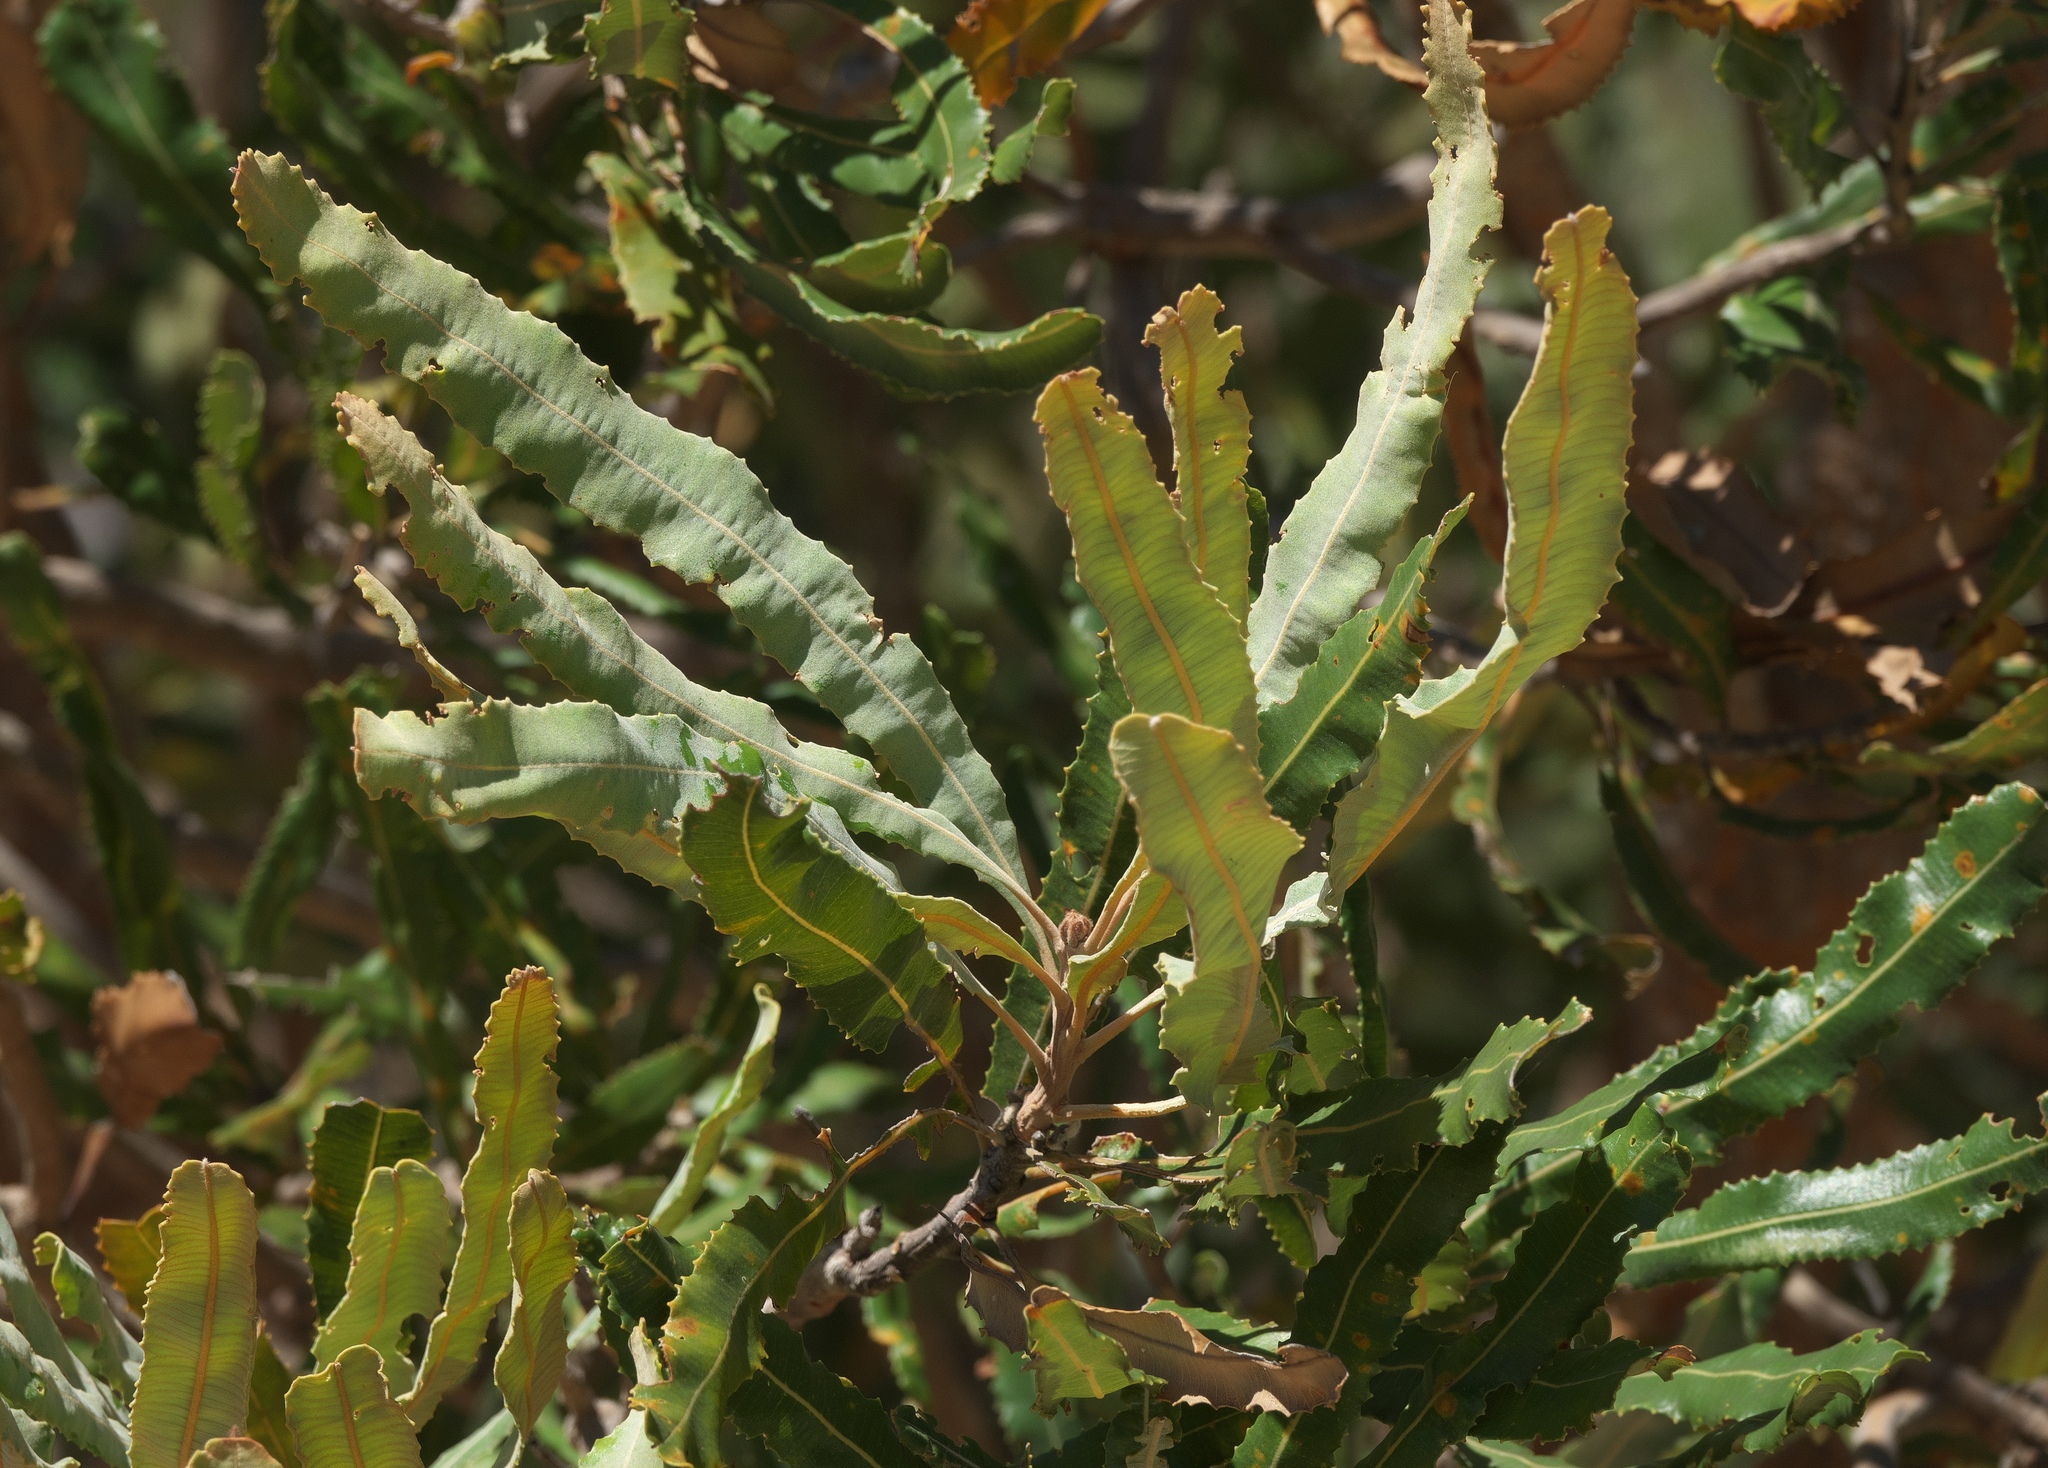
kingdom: Plantae
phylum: Tracheophyta
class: Magnoliopsida
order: Proteales
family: Proteaceae
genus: Banksia
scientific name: Banksia menziesii
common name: Menzie's banksia
